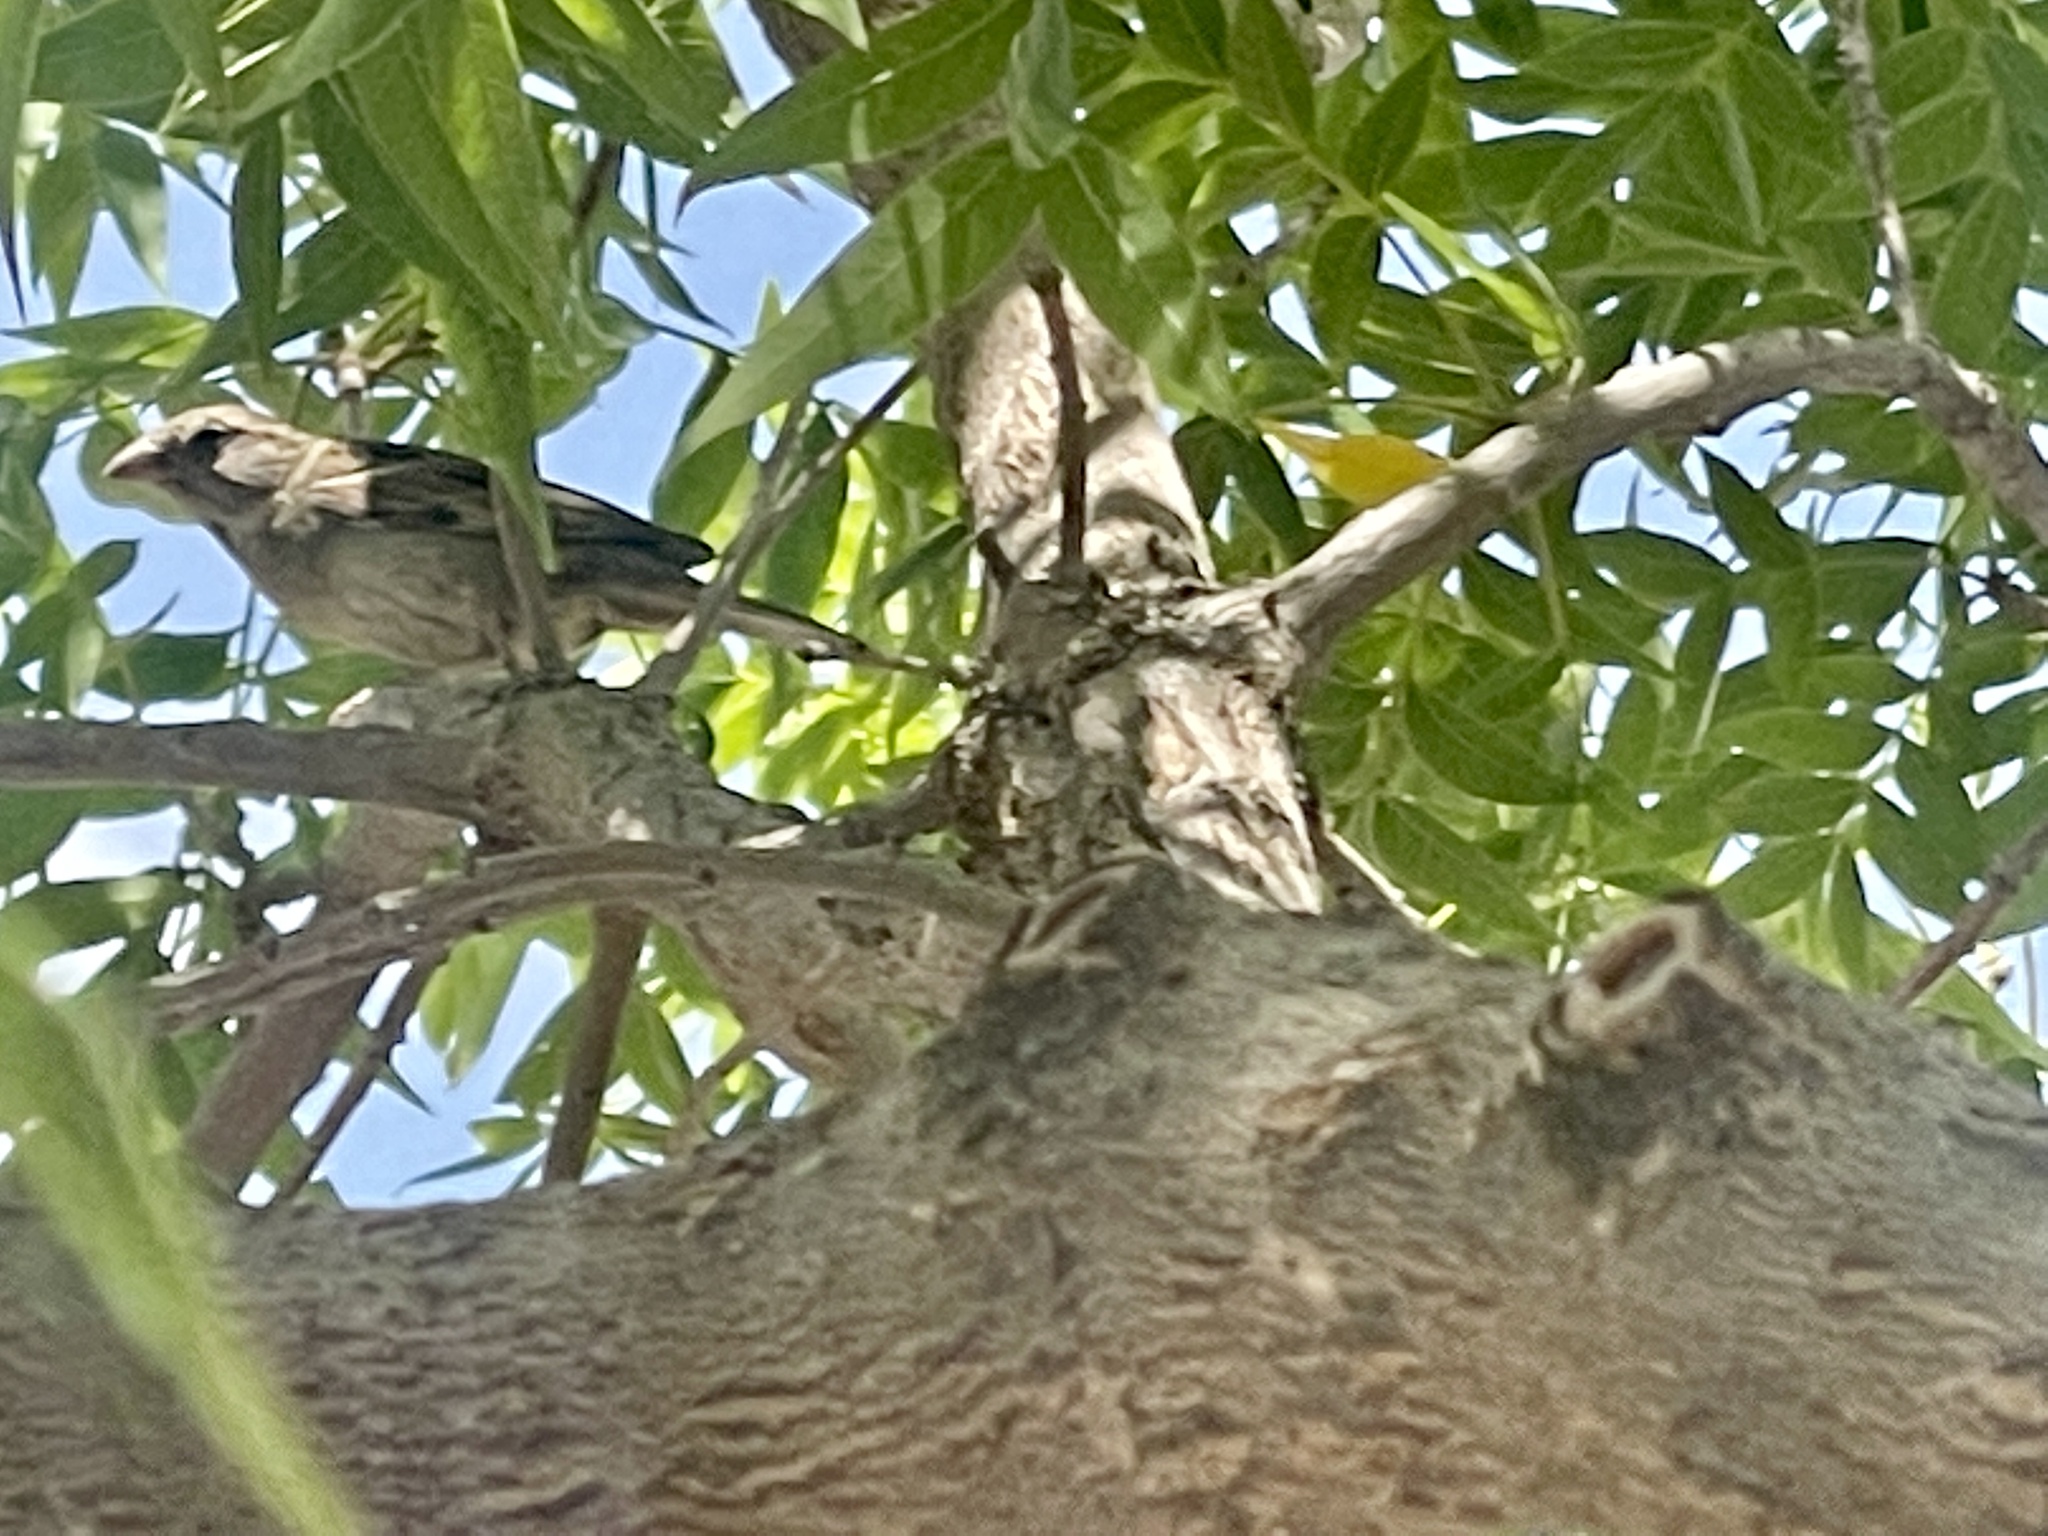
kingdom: Animalia
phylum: Chordata
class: Aves
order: Passeriformes
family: Passeridae
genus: Passer
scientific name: Passer domesticus
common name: House sparrow
